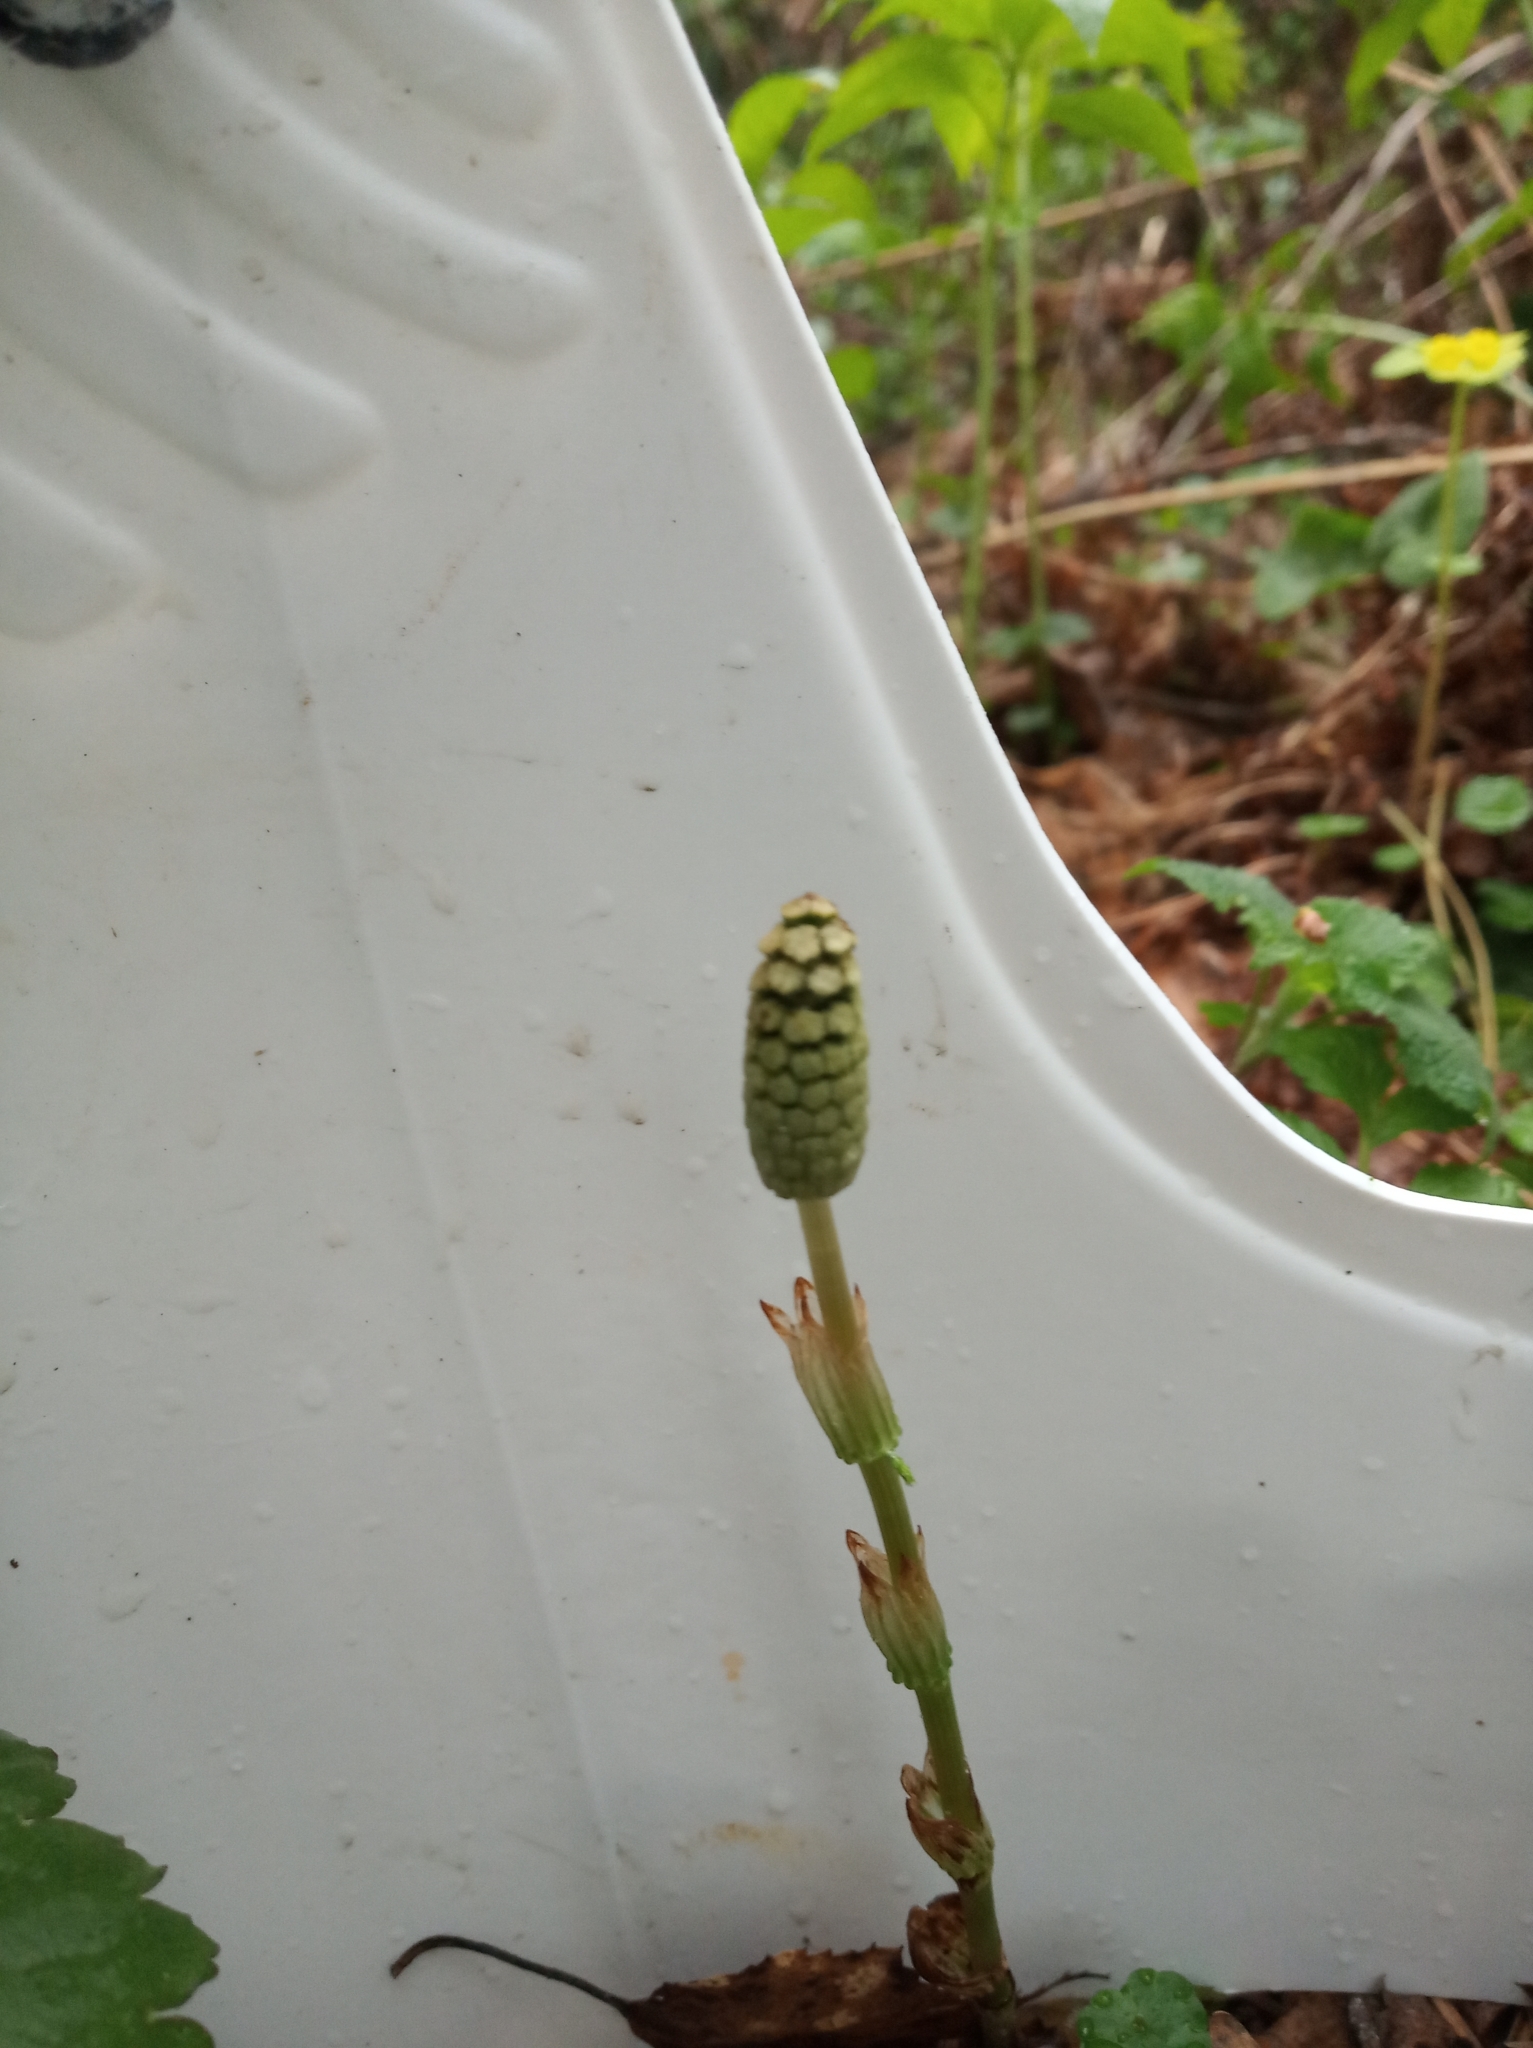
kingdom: Plantae
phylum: Tracheophyta
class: Polypodiopsida
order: Equisetales
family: Equisetaceae
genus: Equisetum
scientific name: Equisetum sylvaticum
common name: Wood horsetail
